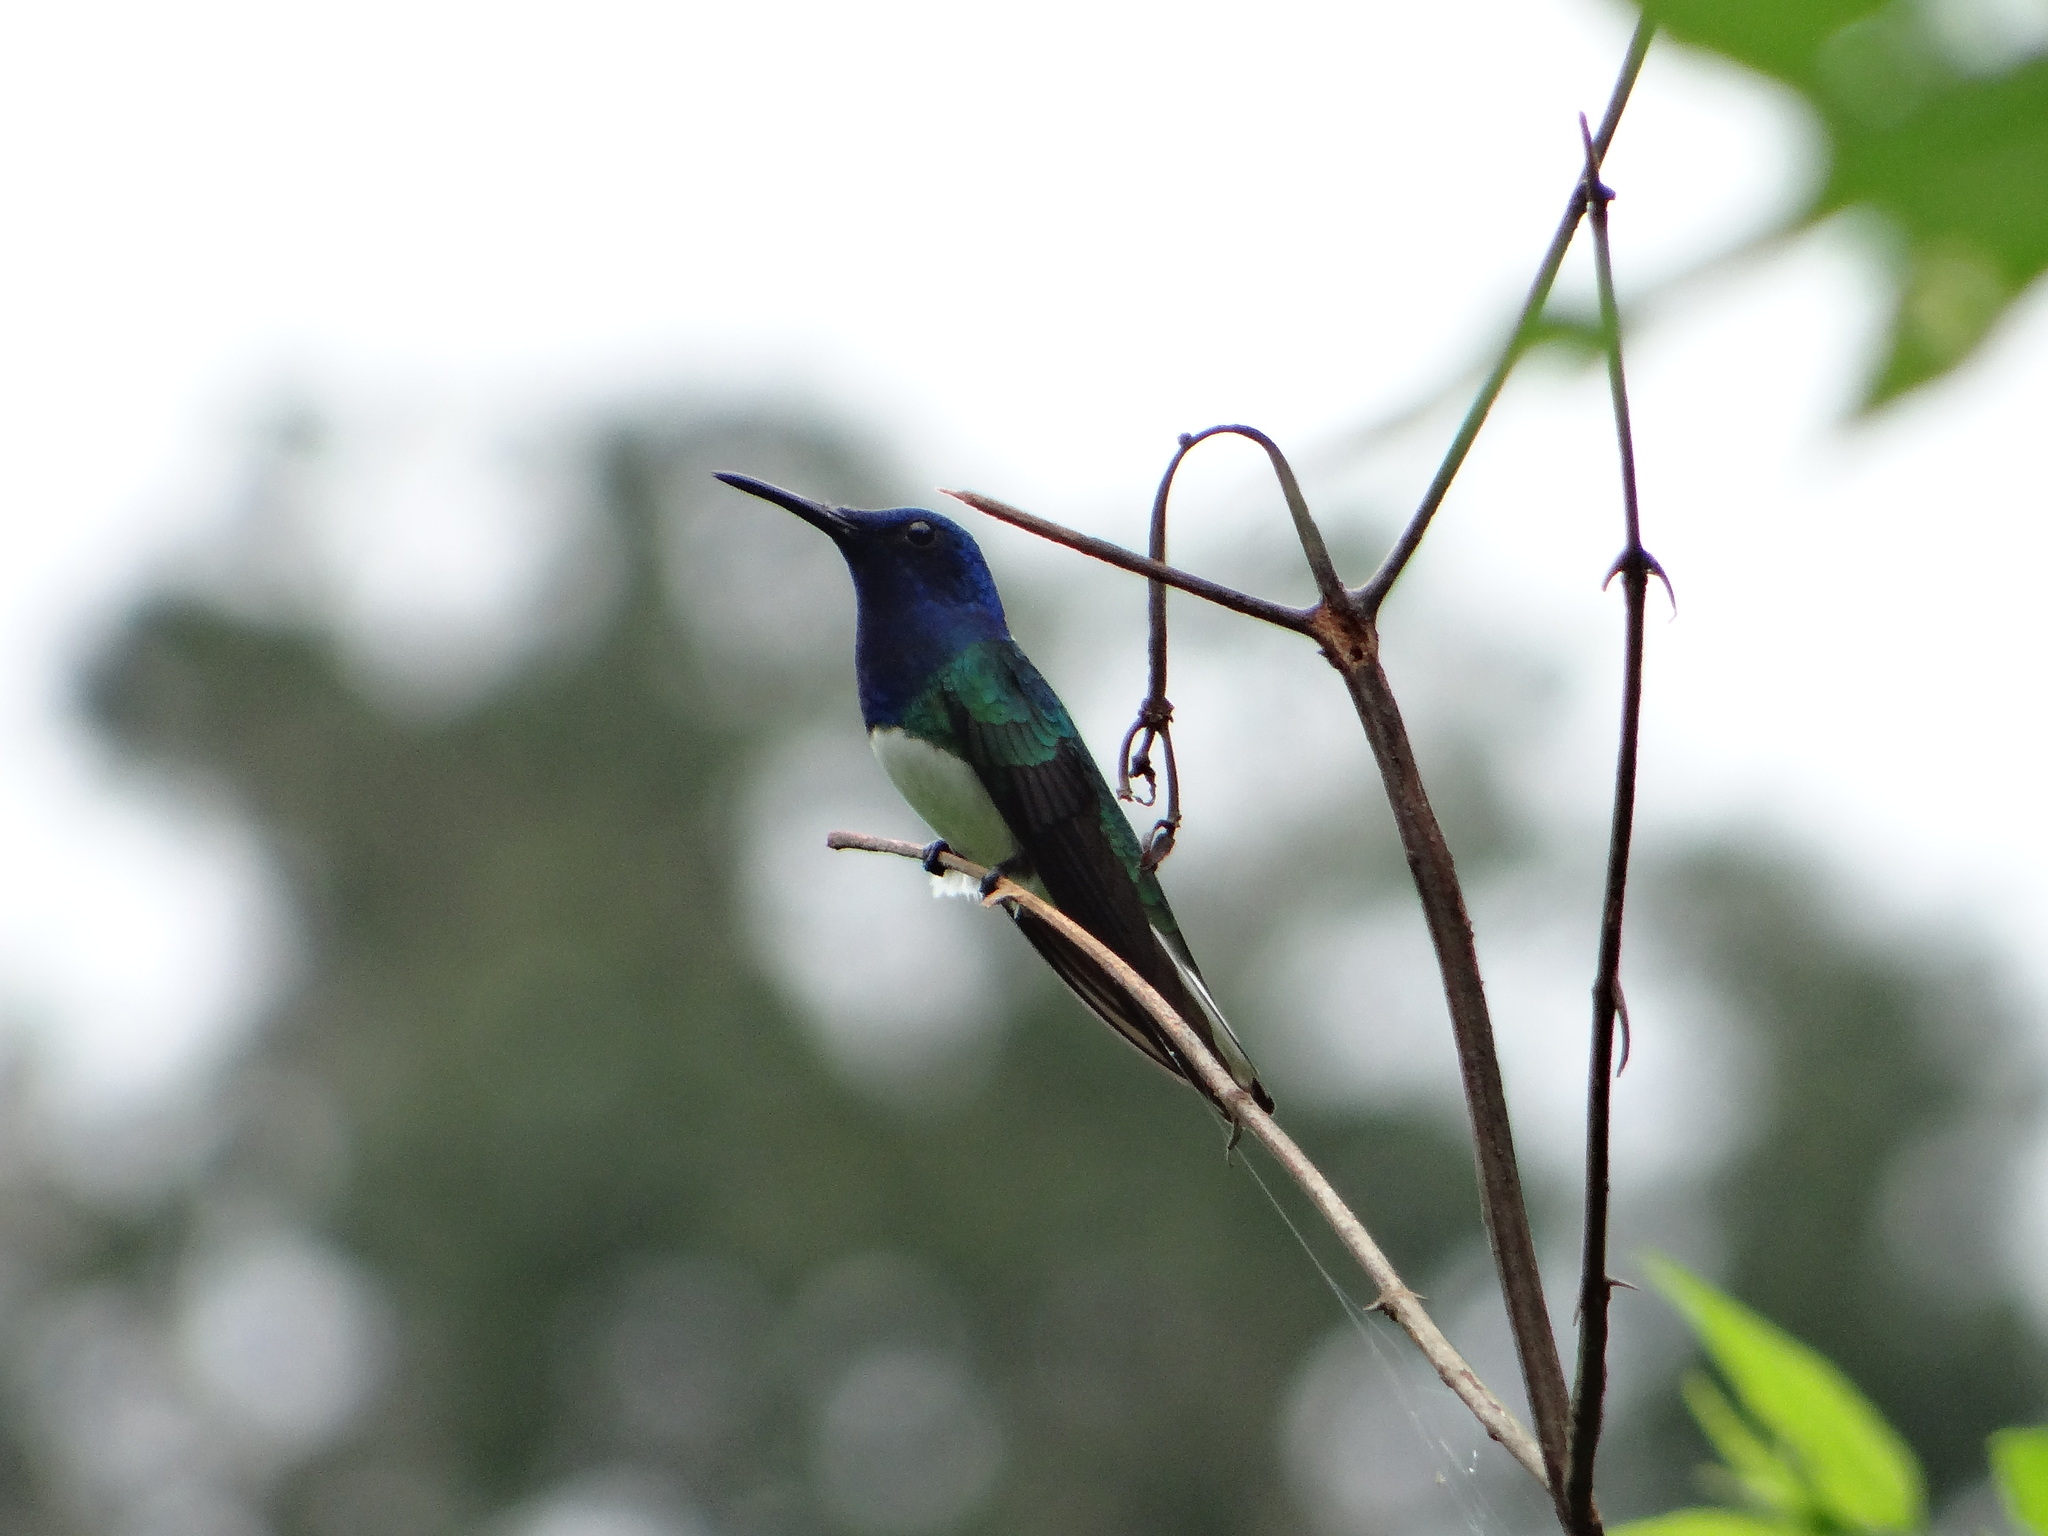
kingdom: Animalia
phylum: Chordata
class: Aves
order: Apodiformes
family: Trochilidae
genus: Florisuga
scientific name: Florisuga mellivora
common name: White-necked jacobin
